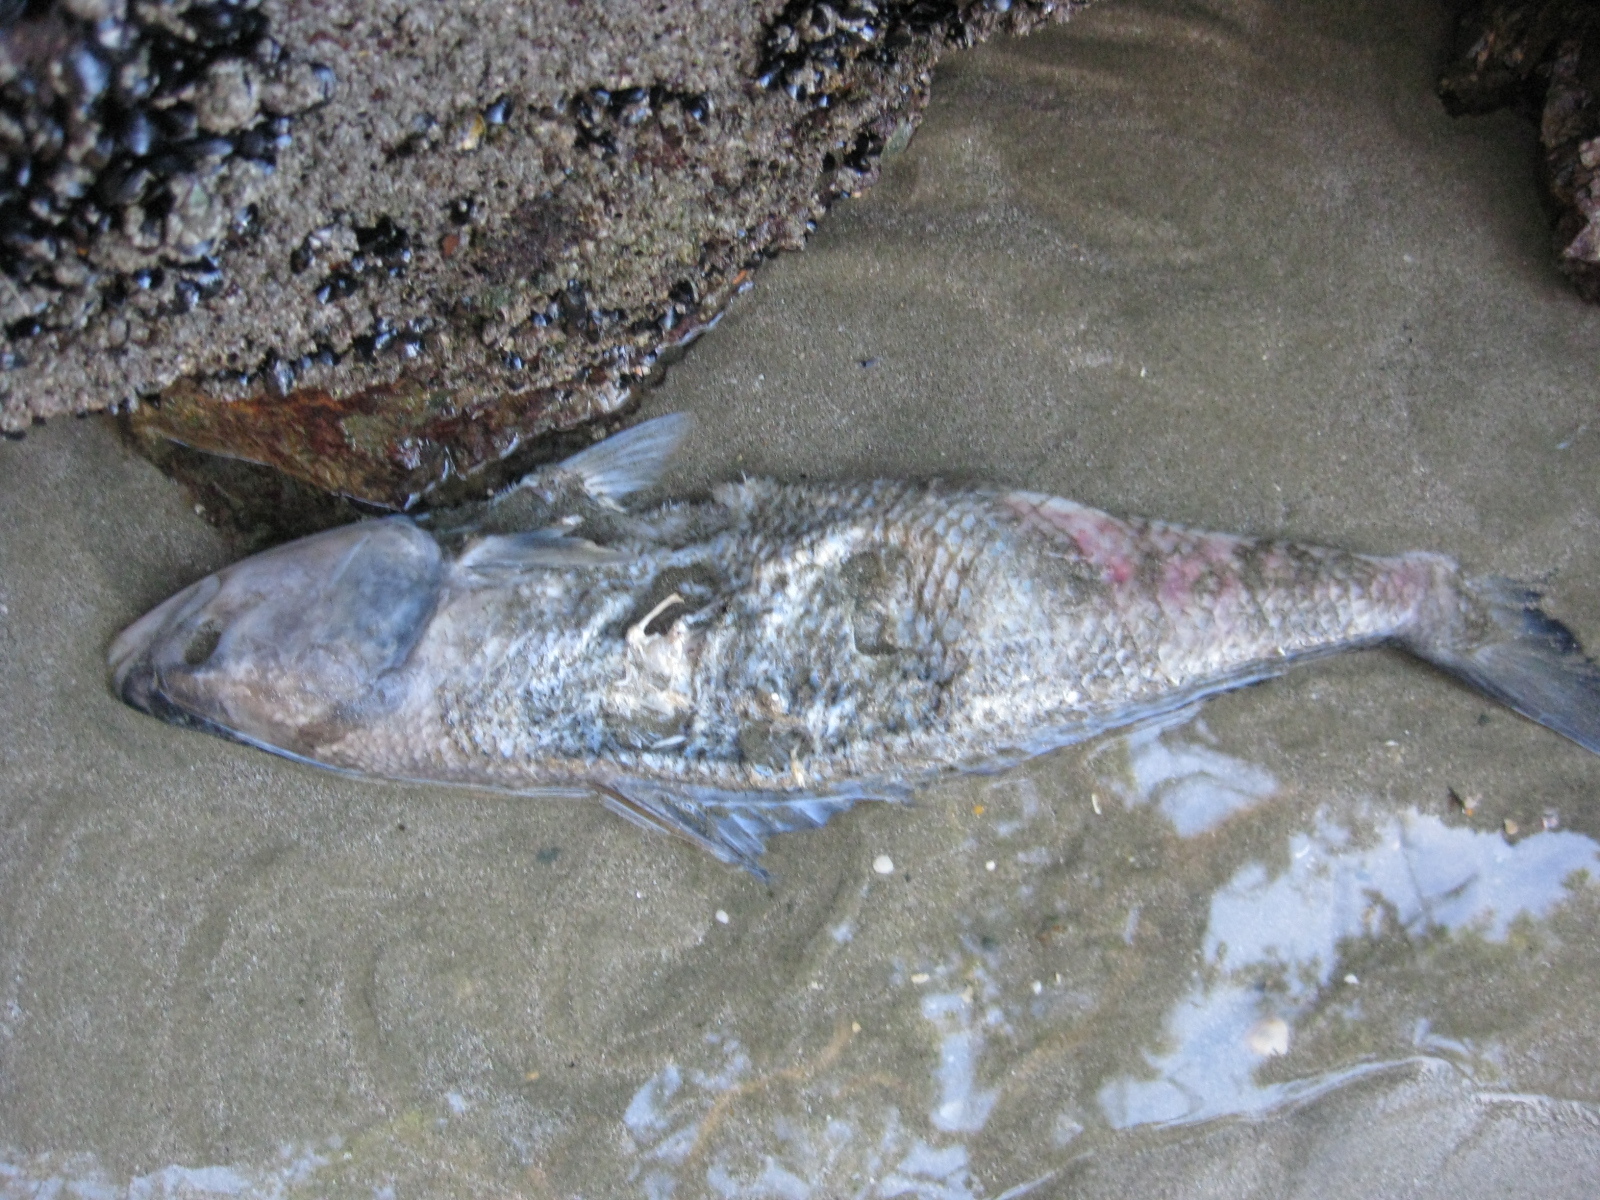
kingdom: Animalia
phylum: Chordata
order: Perciformes
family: Arripidae
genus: Arripis
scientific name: Arripis trutta
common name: Kahawai
